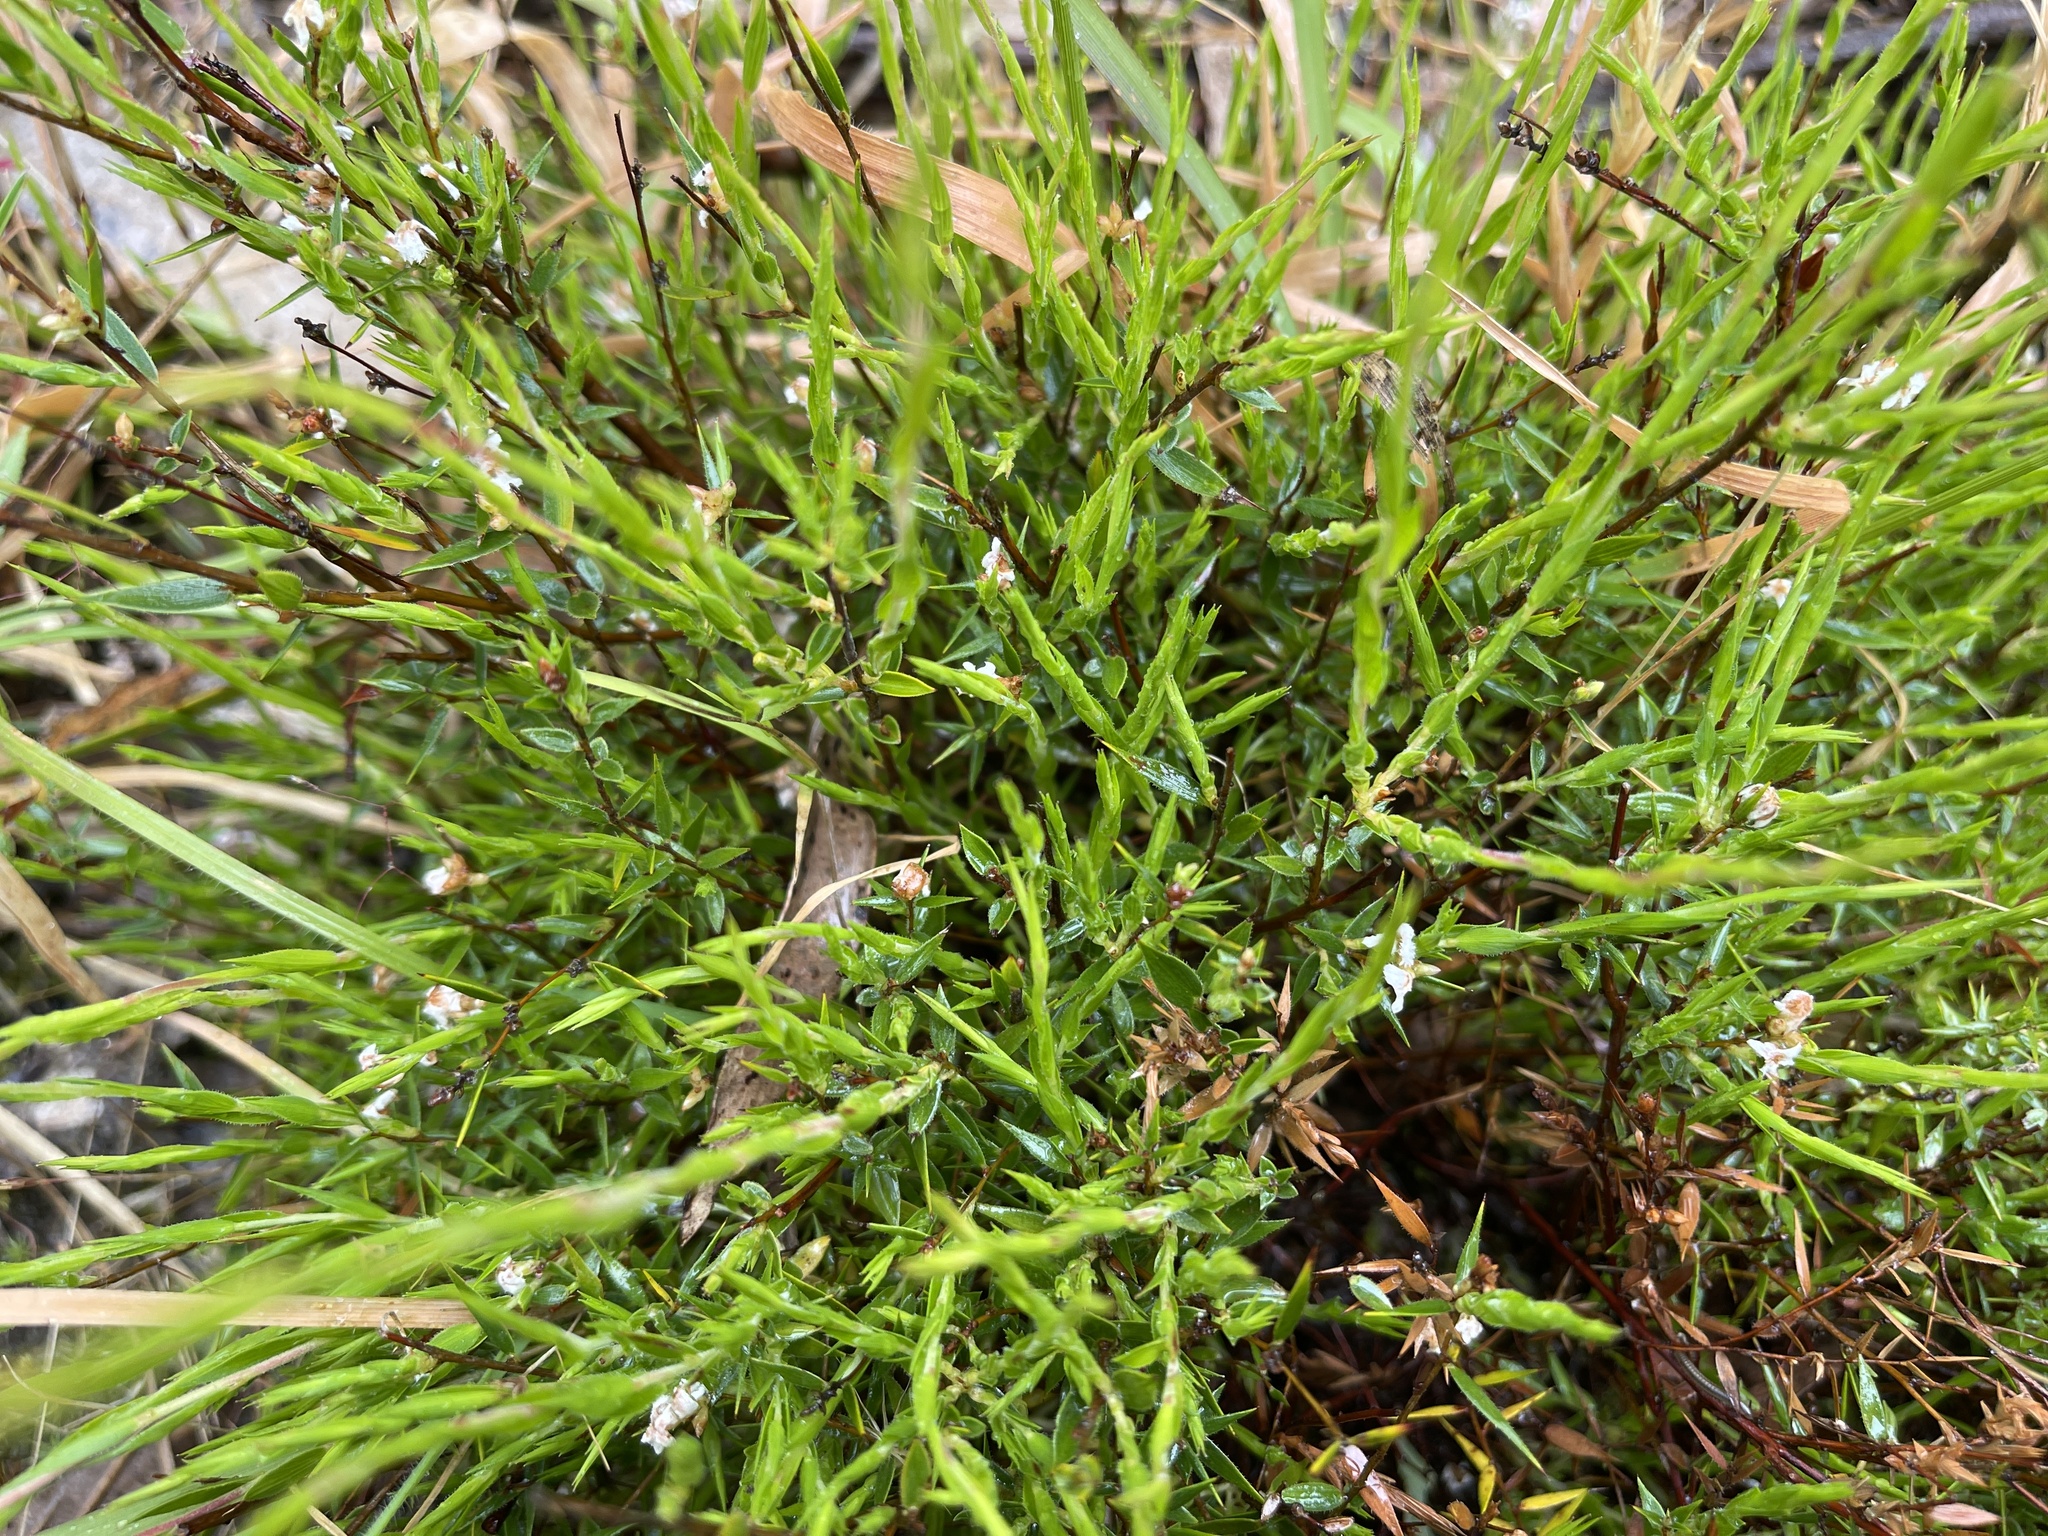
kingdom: Plantae
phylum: Tracheophyta
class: Magnoliopsida
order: Ericales
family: Ericaceae
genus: Leucopogon
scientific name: Leucopogon virgatus
